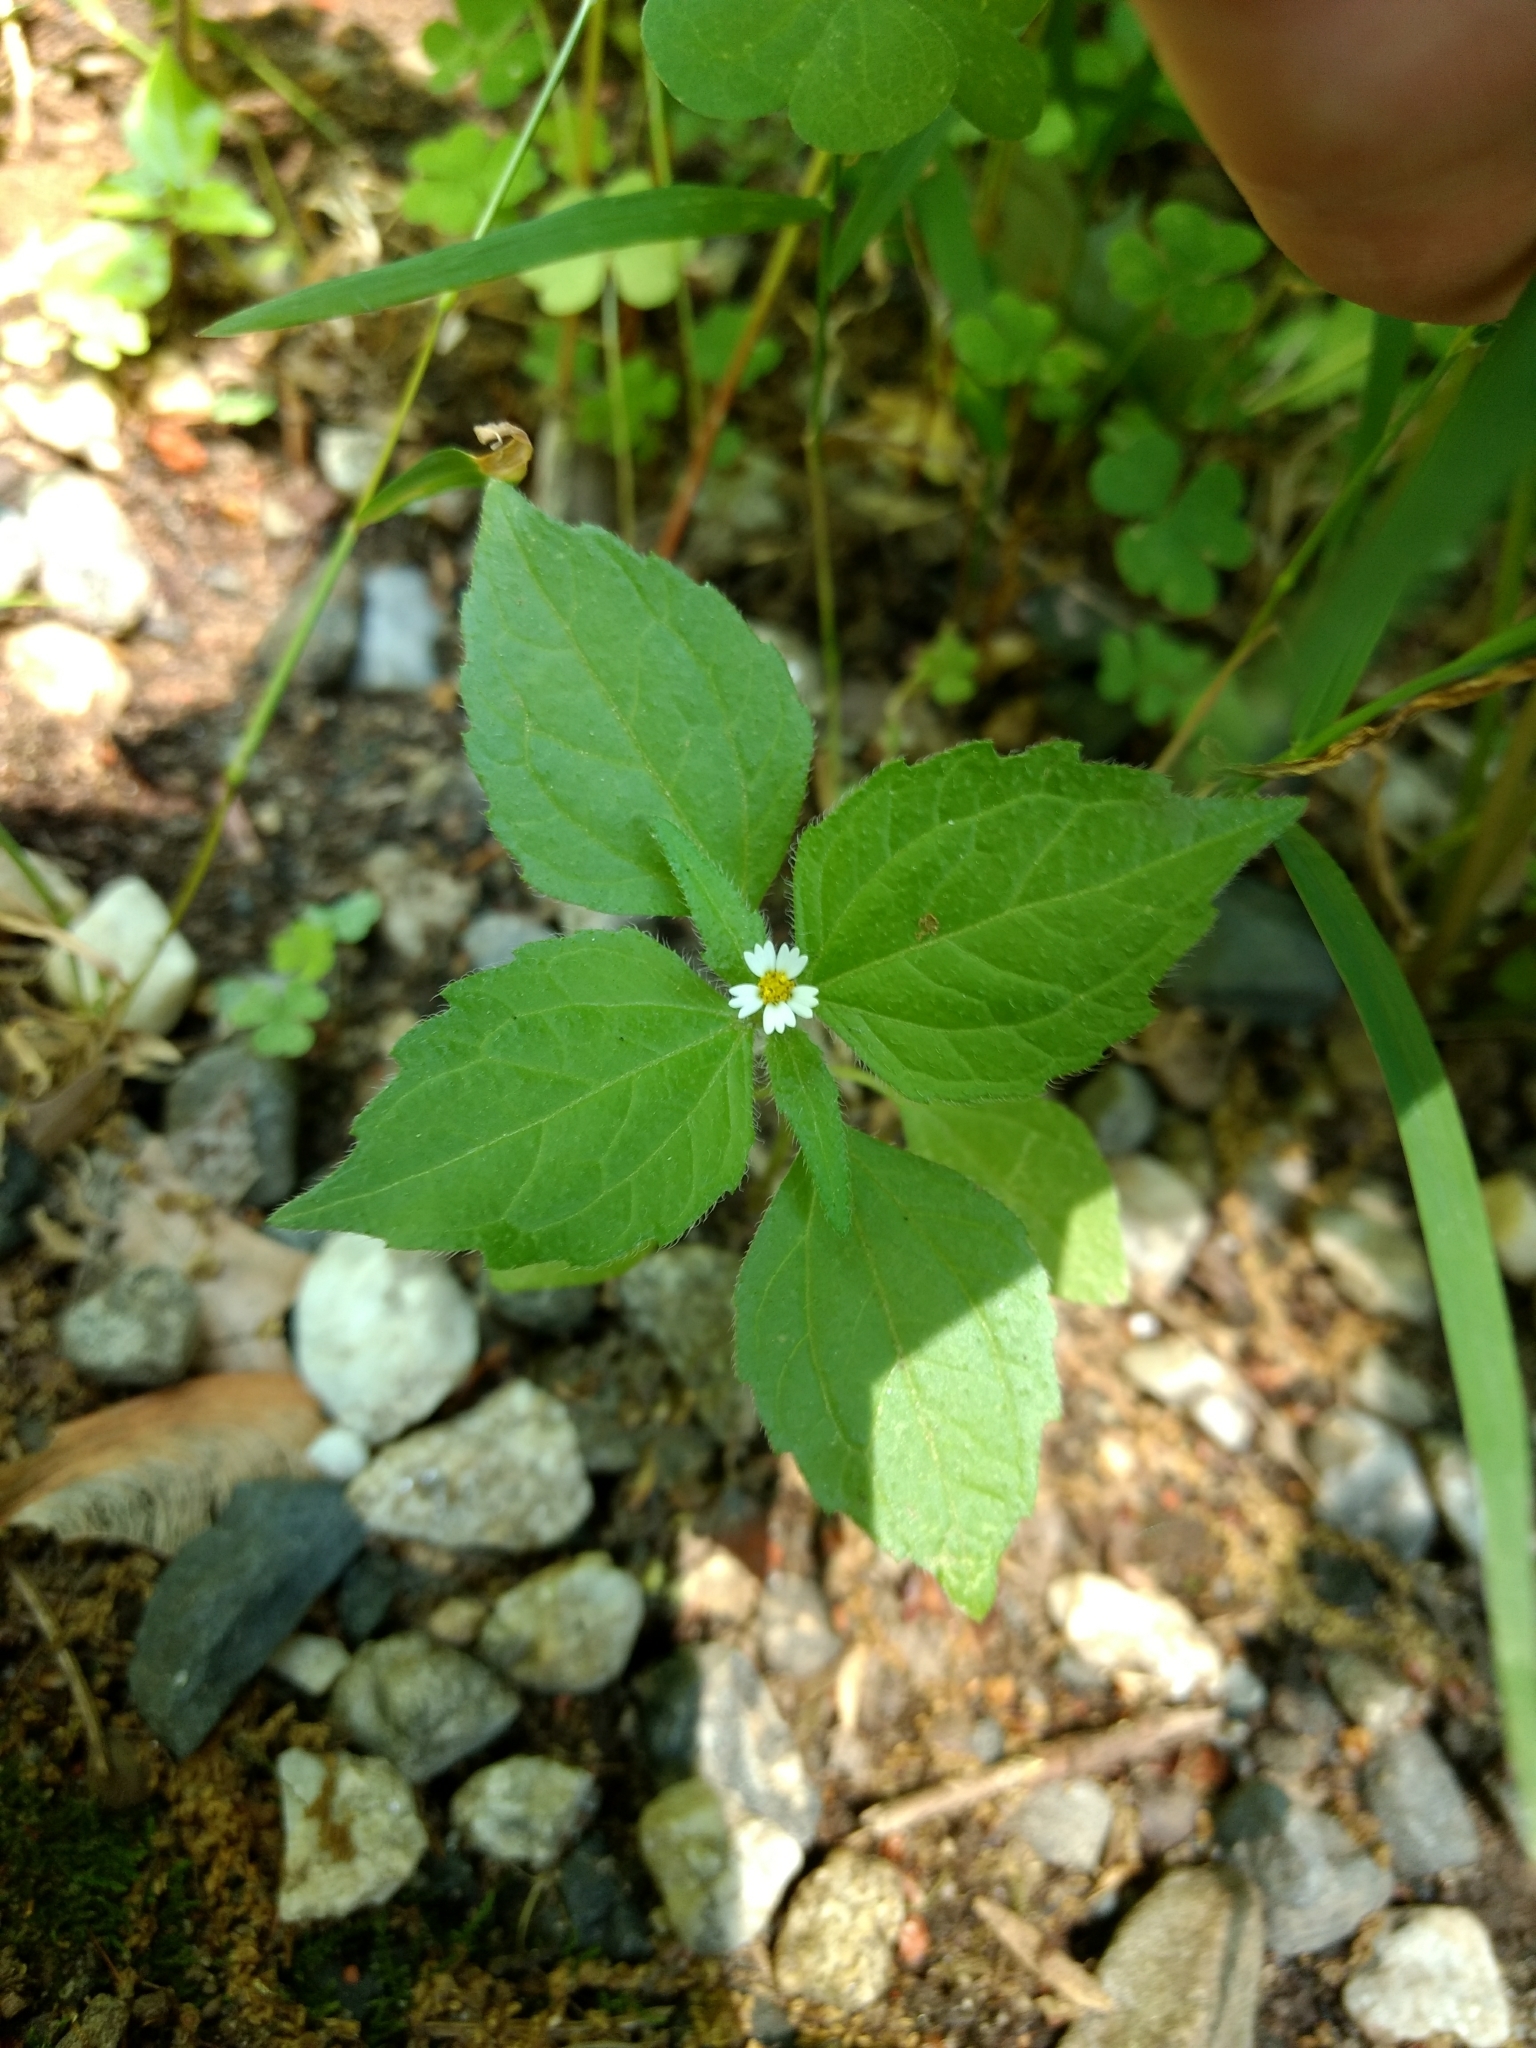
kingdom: Plantae
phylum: Tracheophyta
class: Magnoliopsida
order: Asterales
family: Asteraceae
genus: Galinsoga
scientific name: Galinsoga quadriradiata
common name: Shaggy soldier
